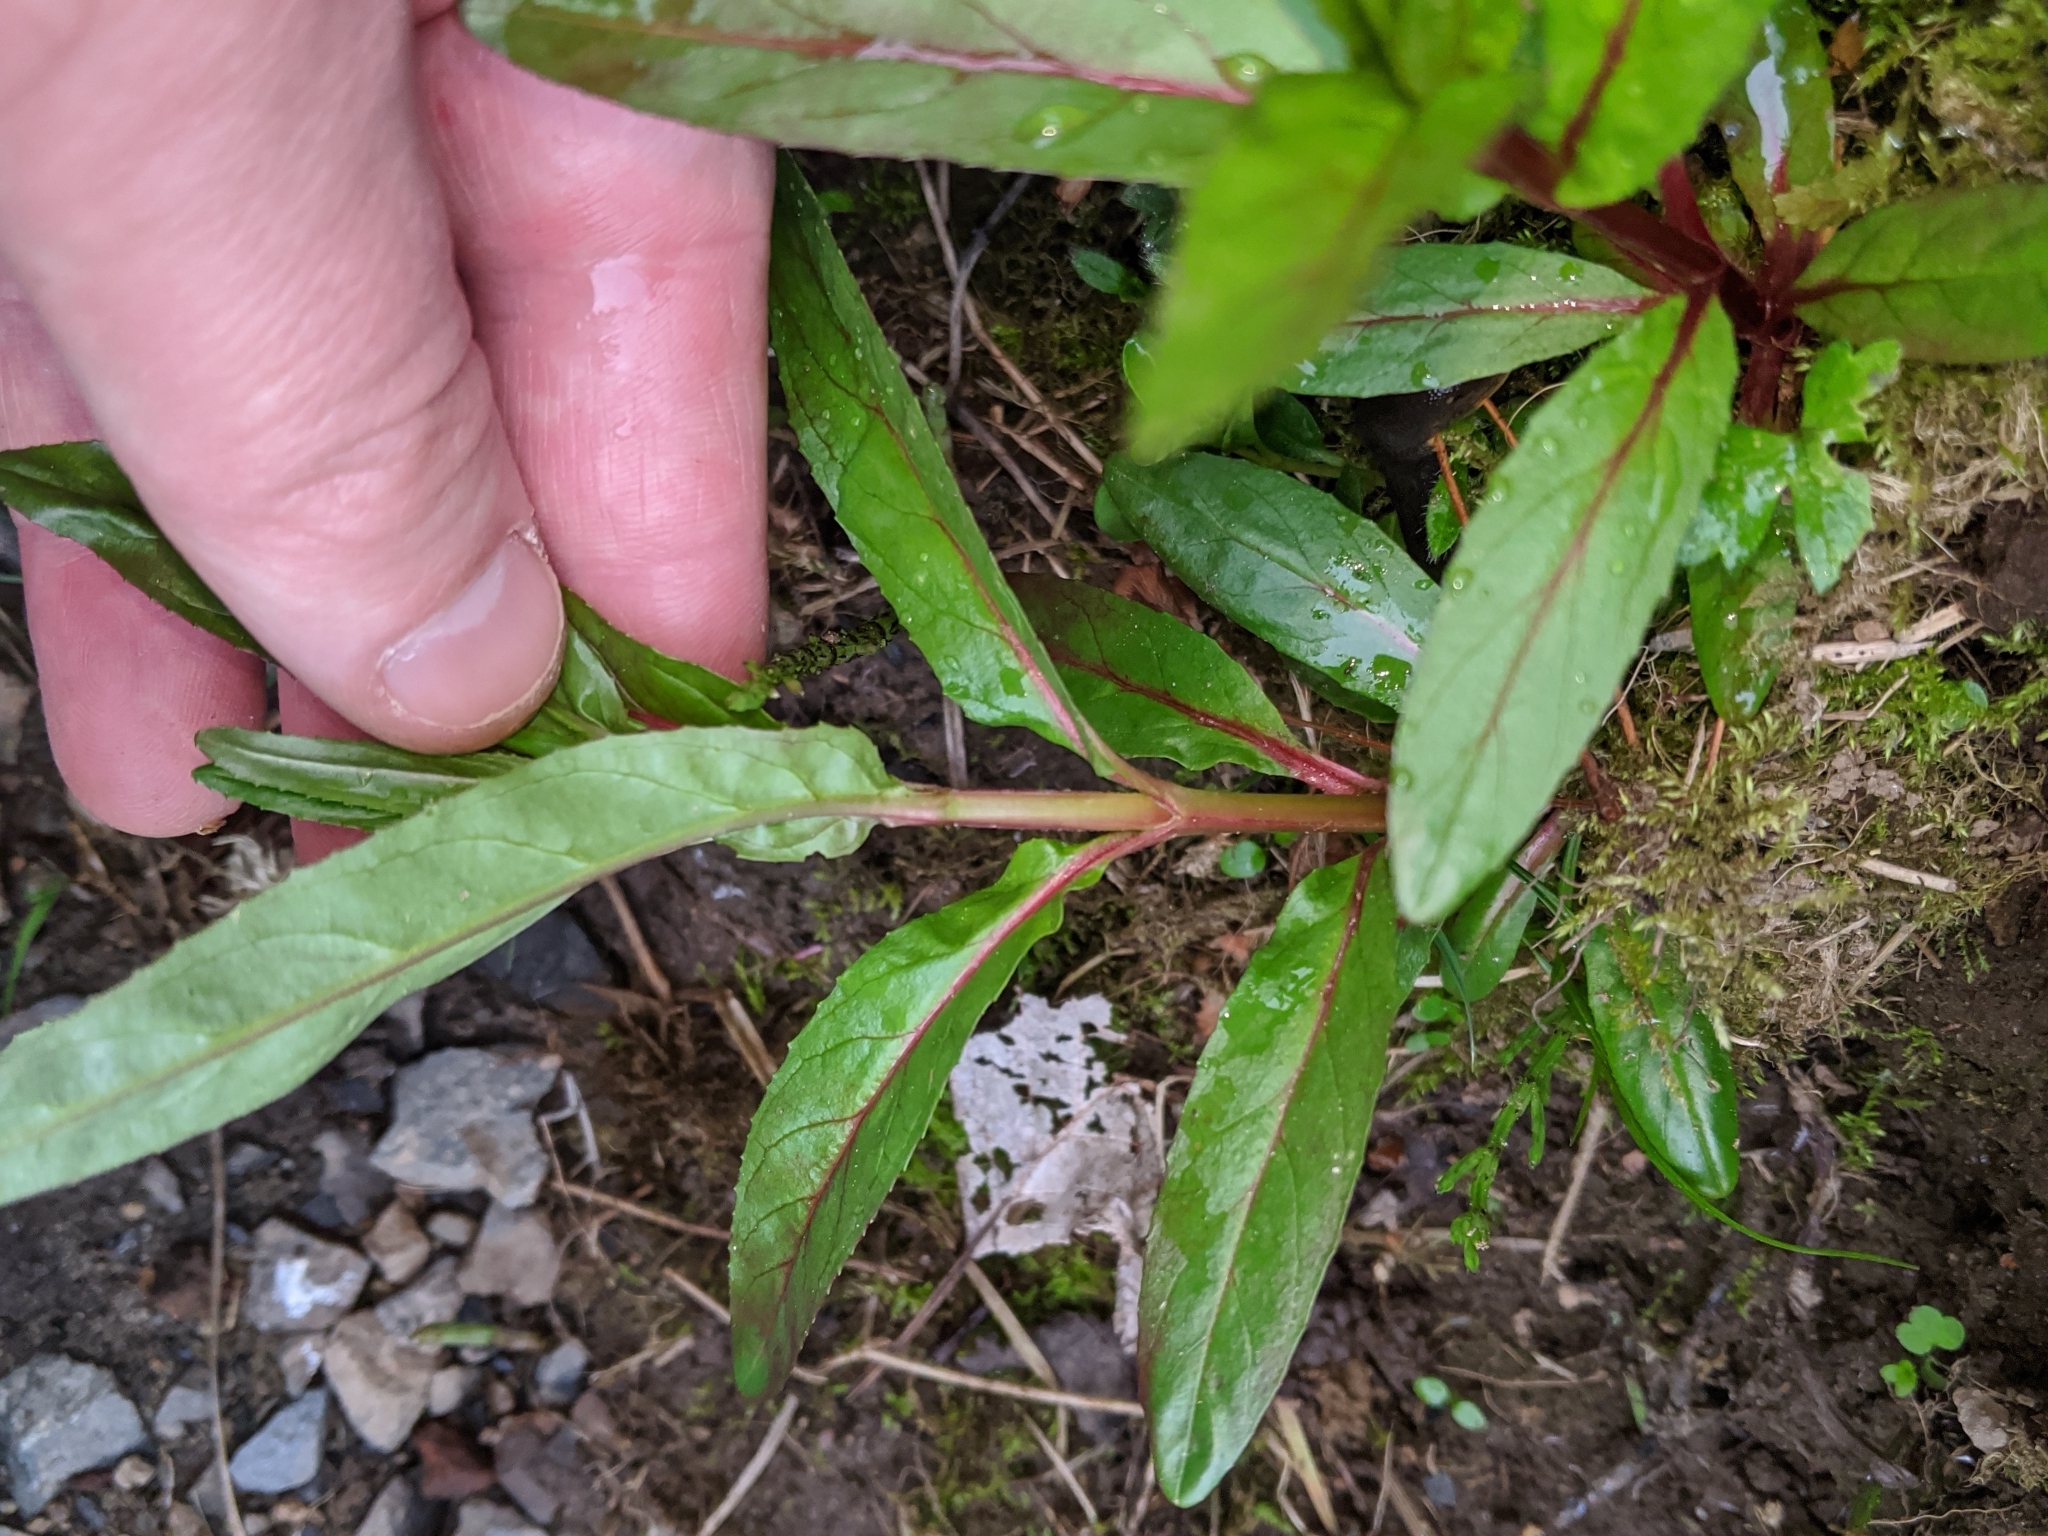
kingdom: Plantae
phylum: Tracheophyta
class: Magnoliopsida
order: Myrtales
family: Onagraceae
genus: Epilobium
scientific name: Epilobium ciliatum
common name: American willowherb
